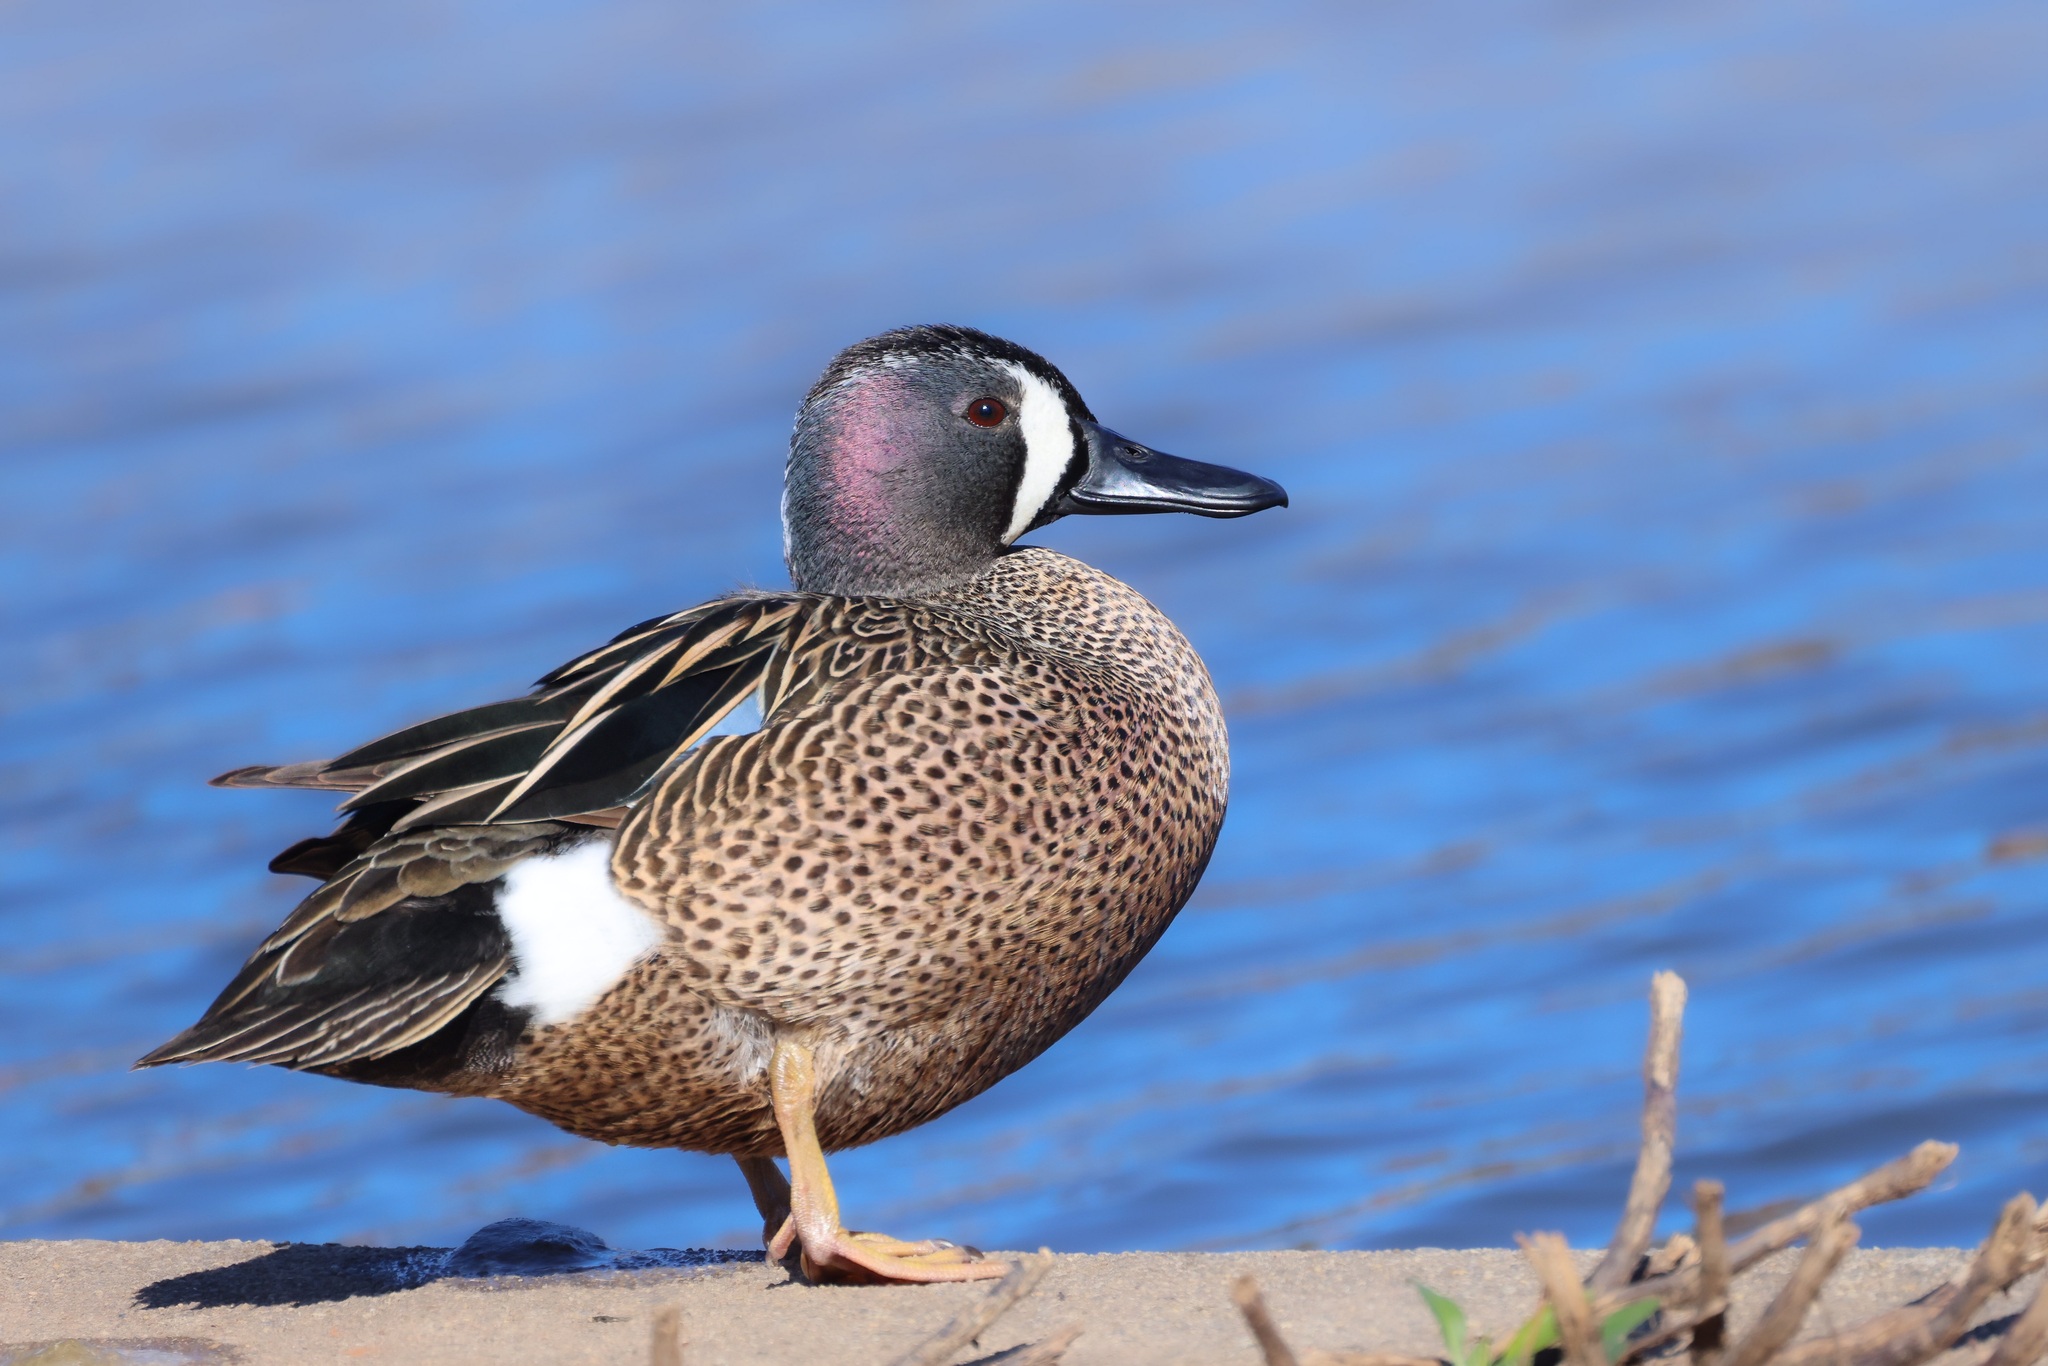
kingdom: Animalia
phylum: Chordata
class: Aves
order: Anseriformes
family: Anatidae
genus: Spatula
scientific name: Spatula discors
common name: Blue-winged teal
